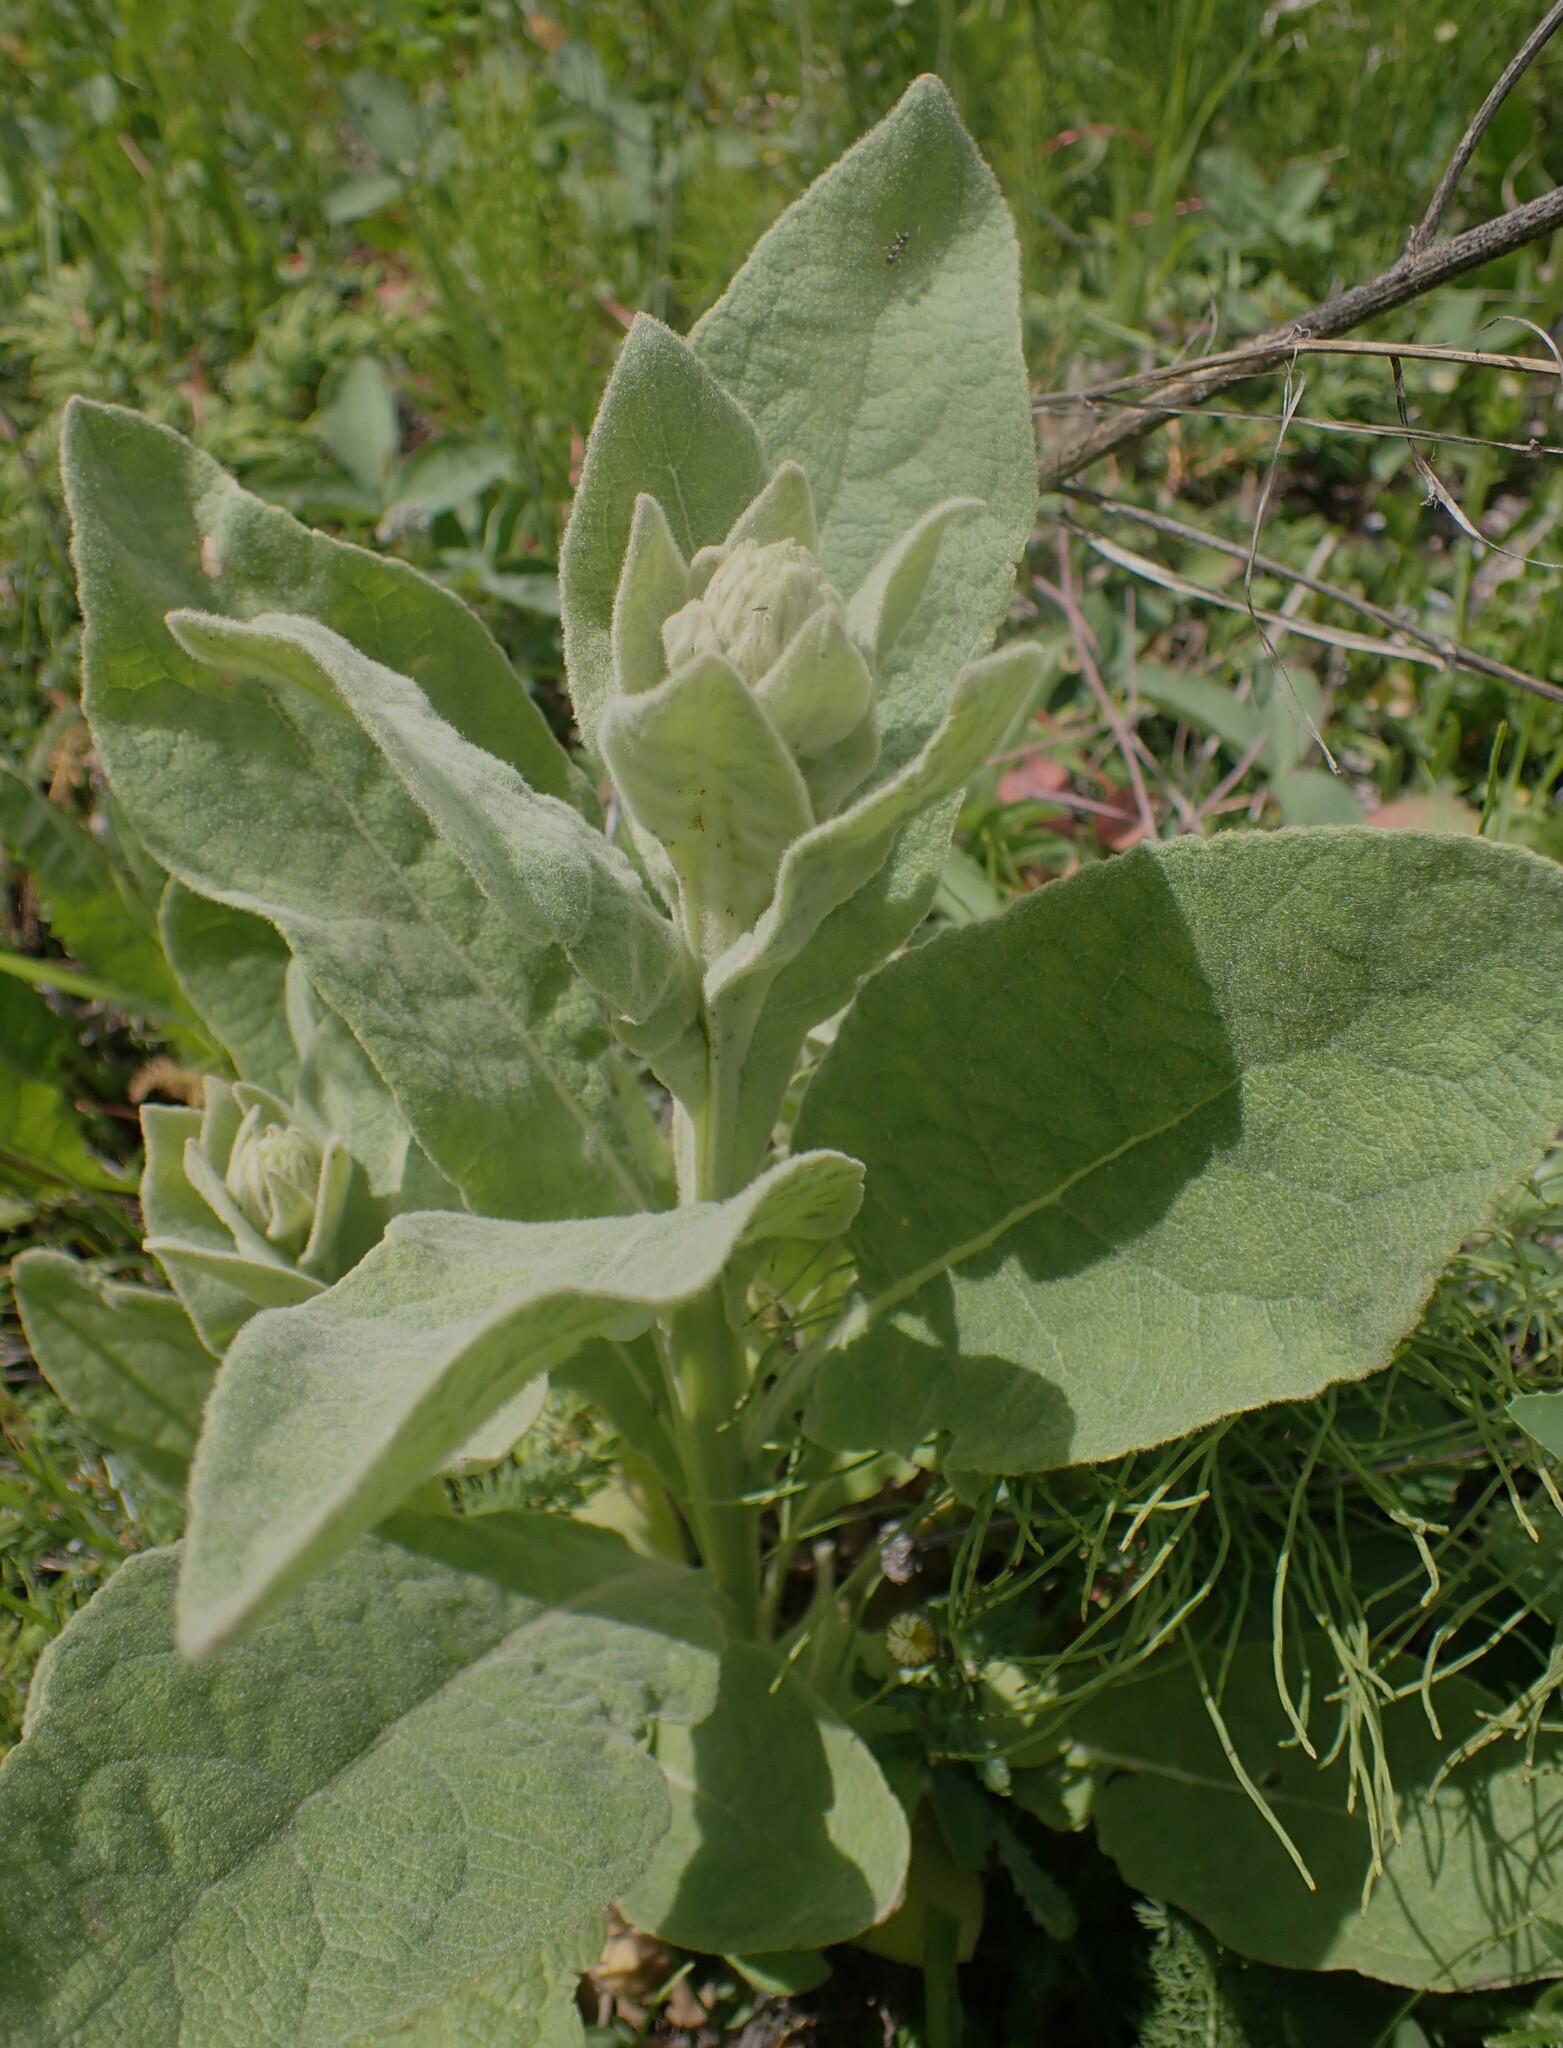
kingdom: Plantae
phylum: Tracheophyta
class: Magnoliopsida
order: Lamiales
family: Scrophulariaceae
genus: Verbascum
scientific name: Verbascum thapsus
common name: Common mullein
